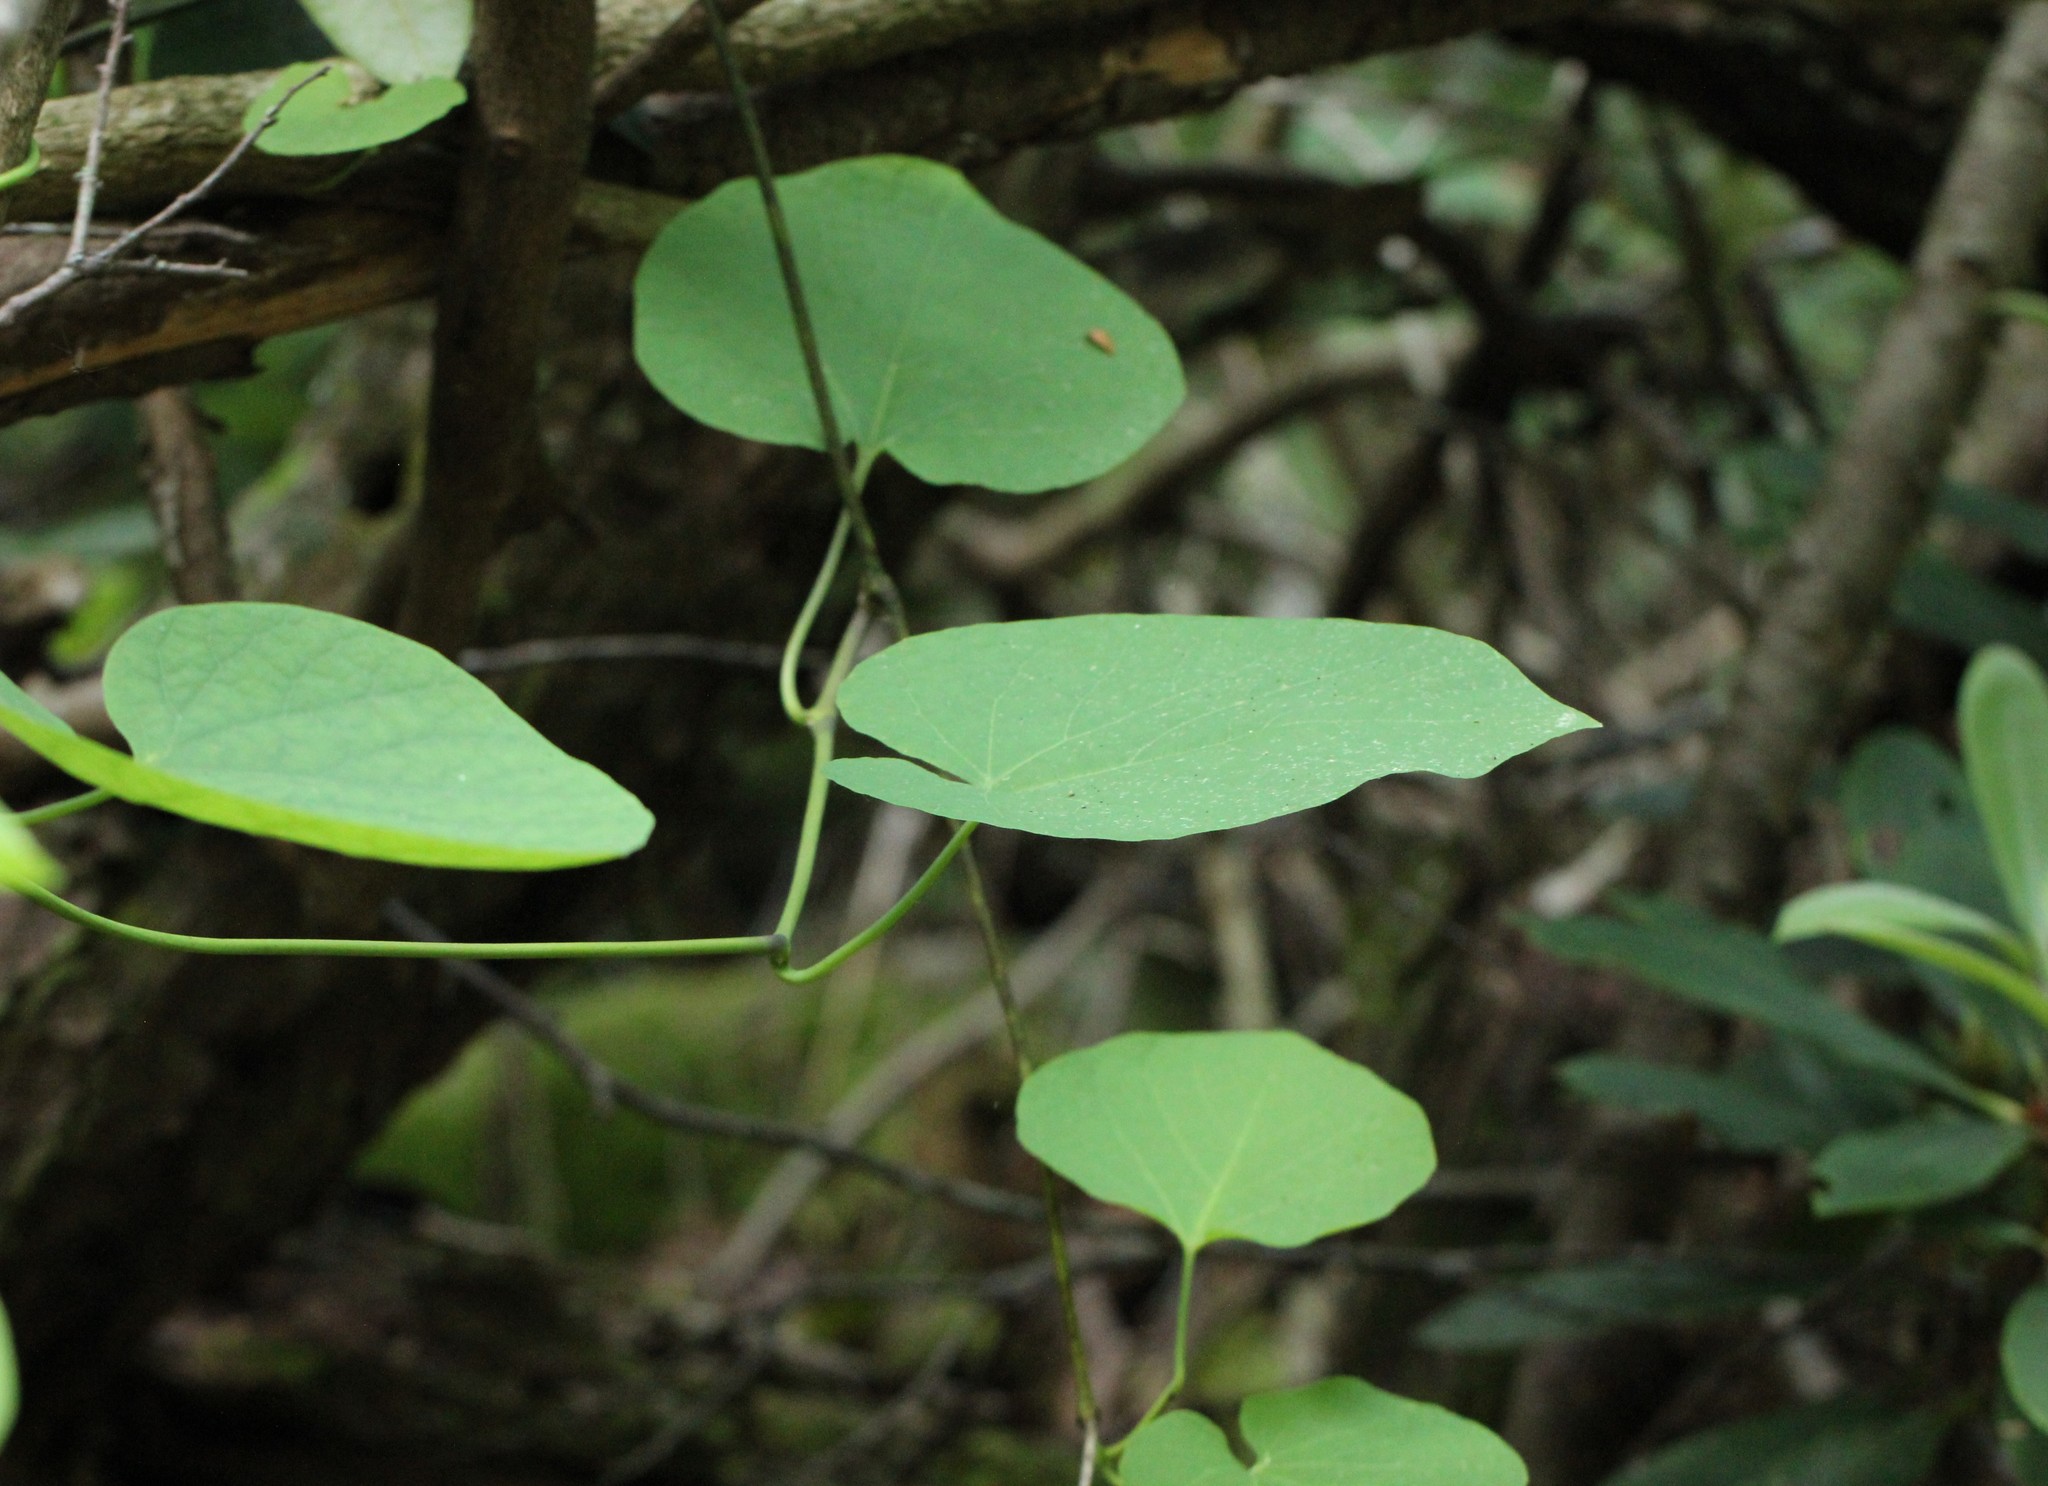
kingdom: Plantae
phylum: Tracheophyta
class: Magnoliopsida
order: Piperales
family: Aristolochiaceae
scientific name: Aristolochiaceae
